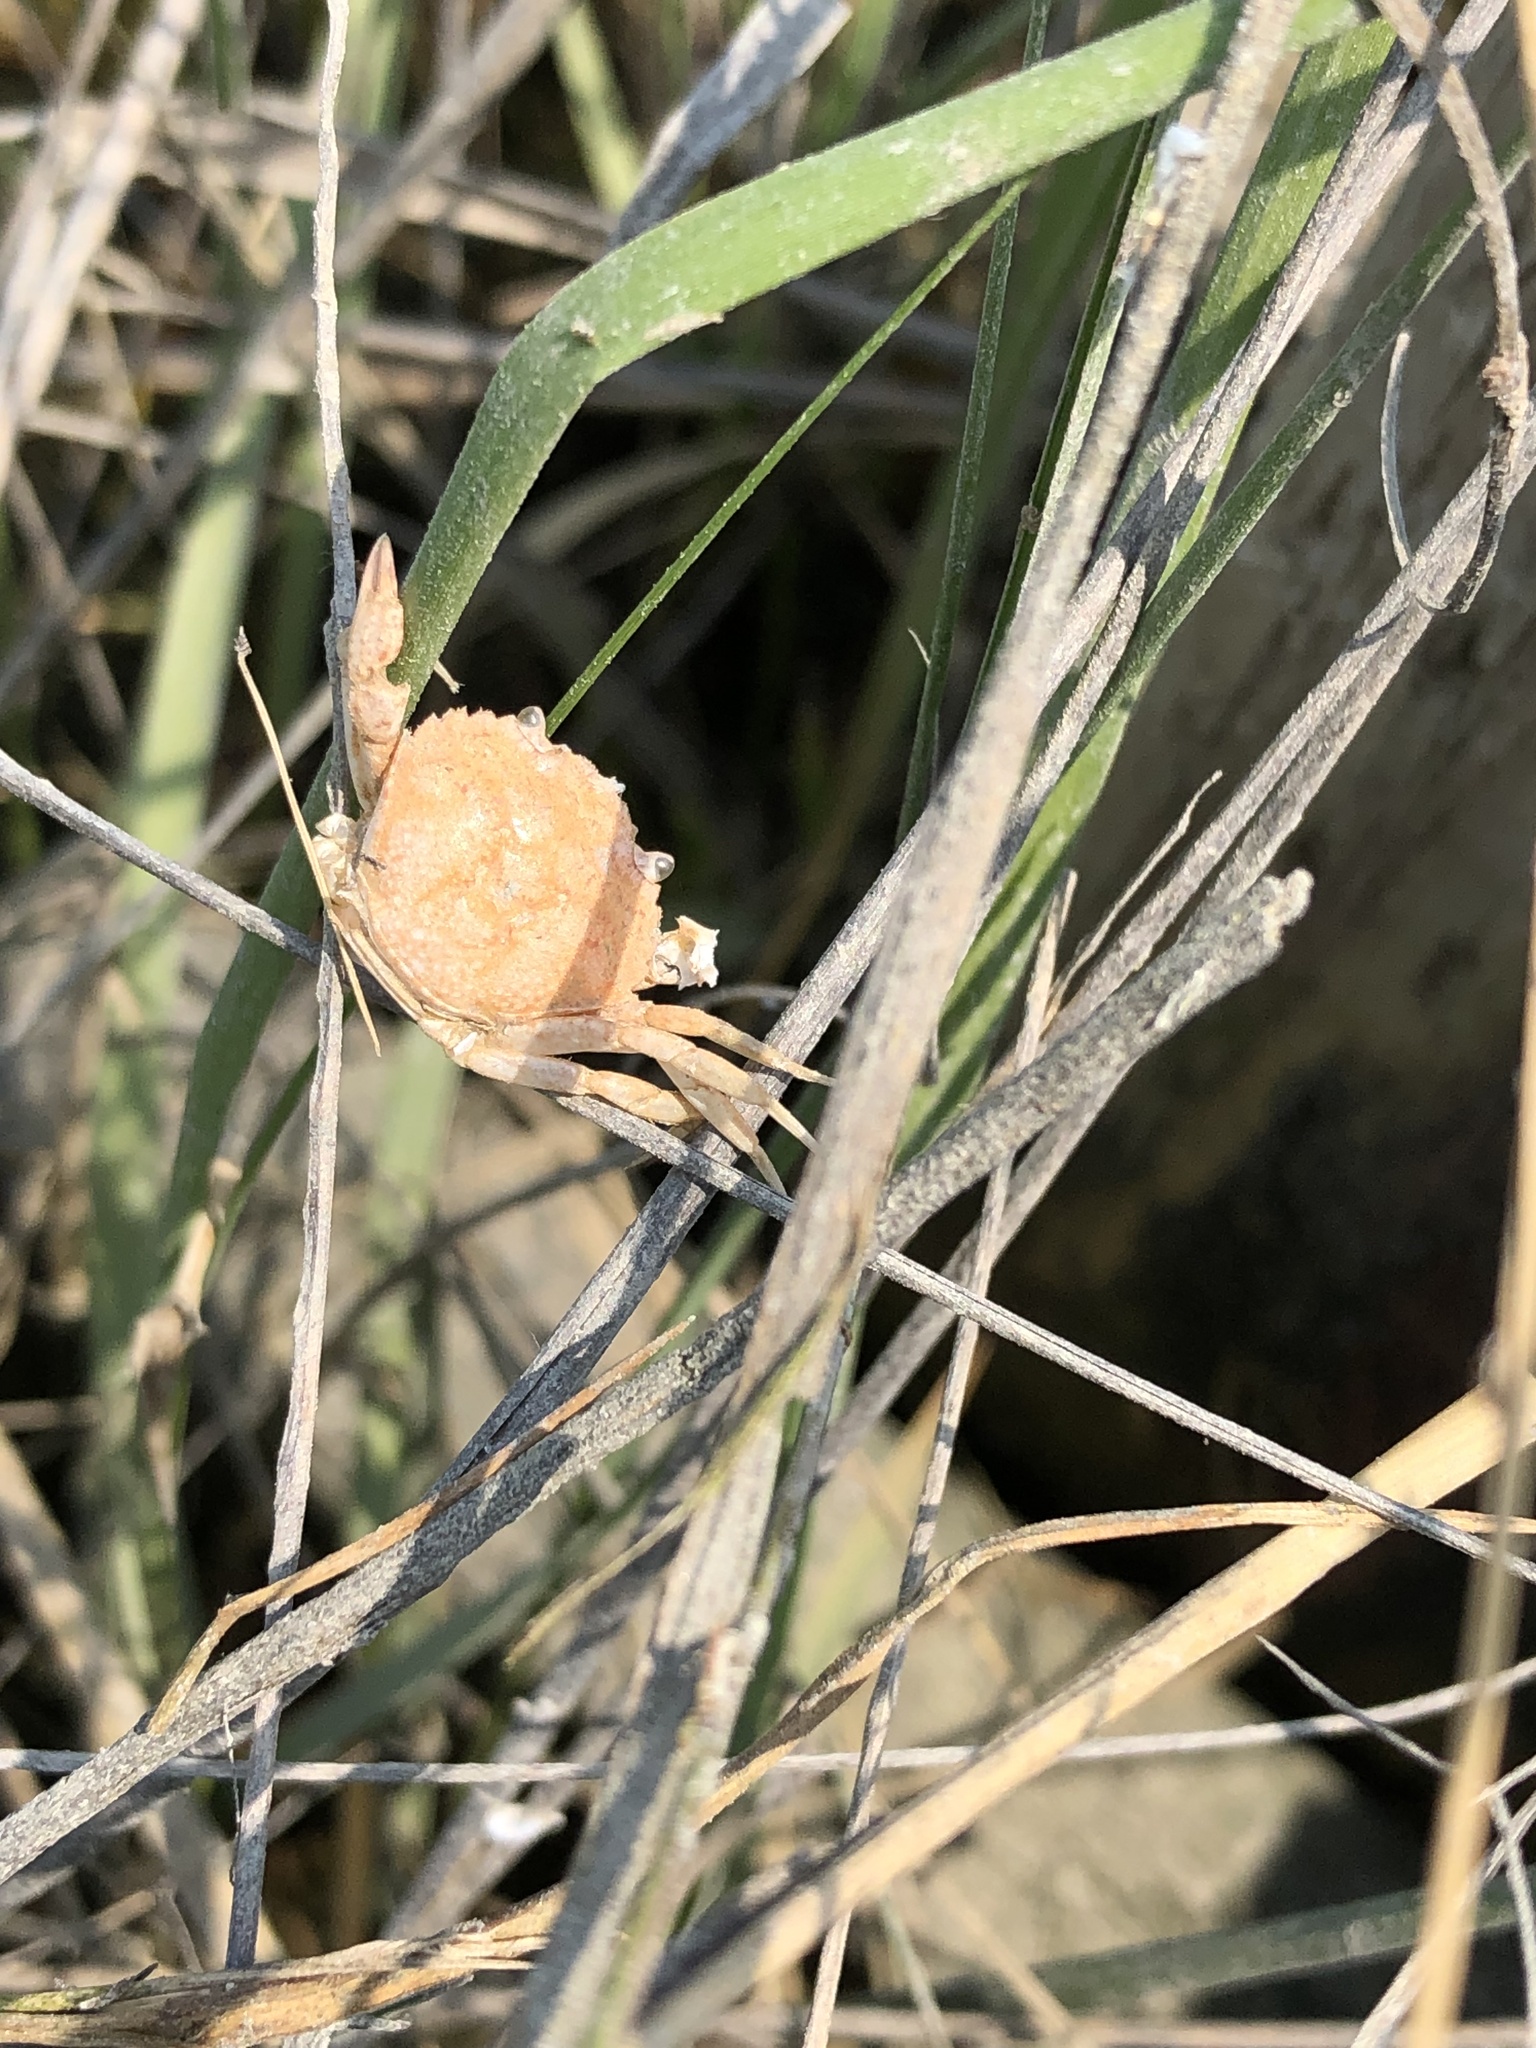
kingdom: Animalia
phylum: Arthropoda
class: Malacostraca
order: Decapoda
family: Carcinidae
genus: Carcinus
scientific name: Carcinus maenas
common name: European green crab
